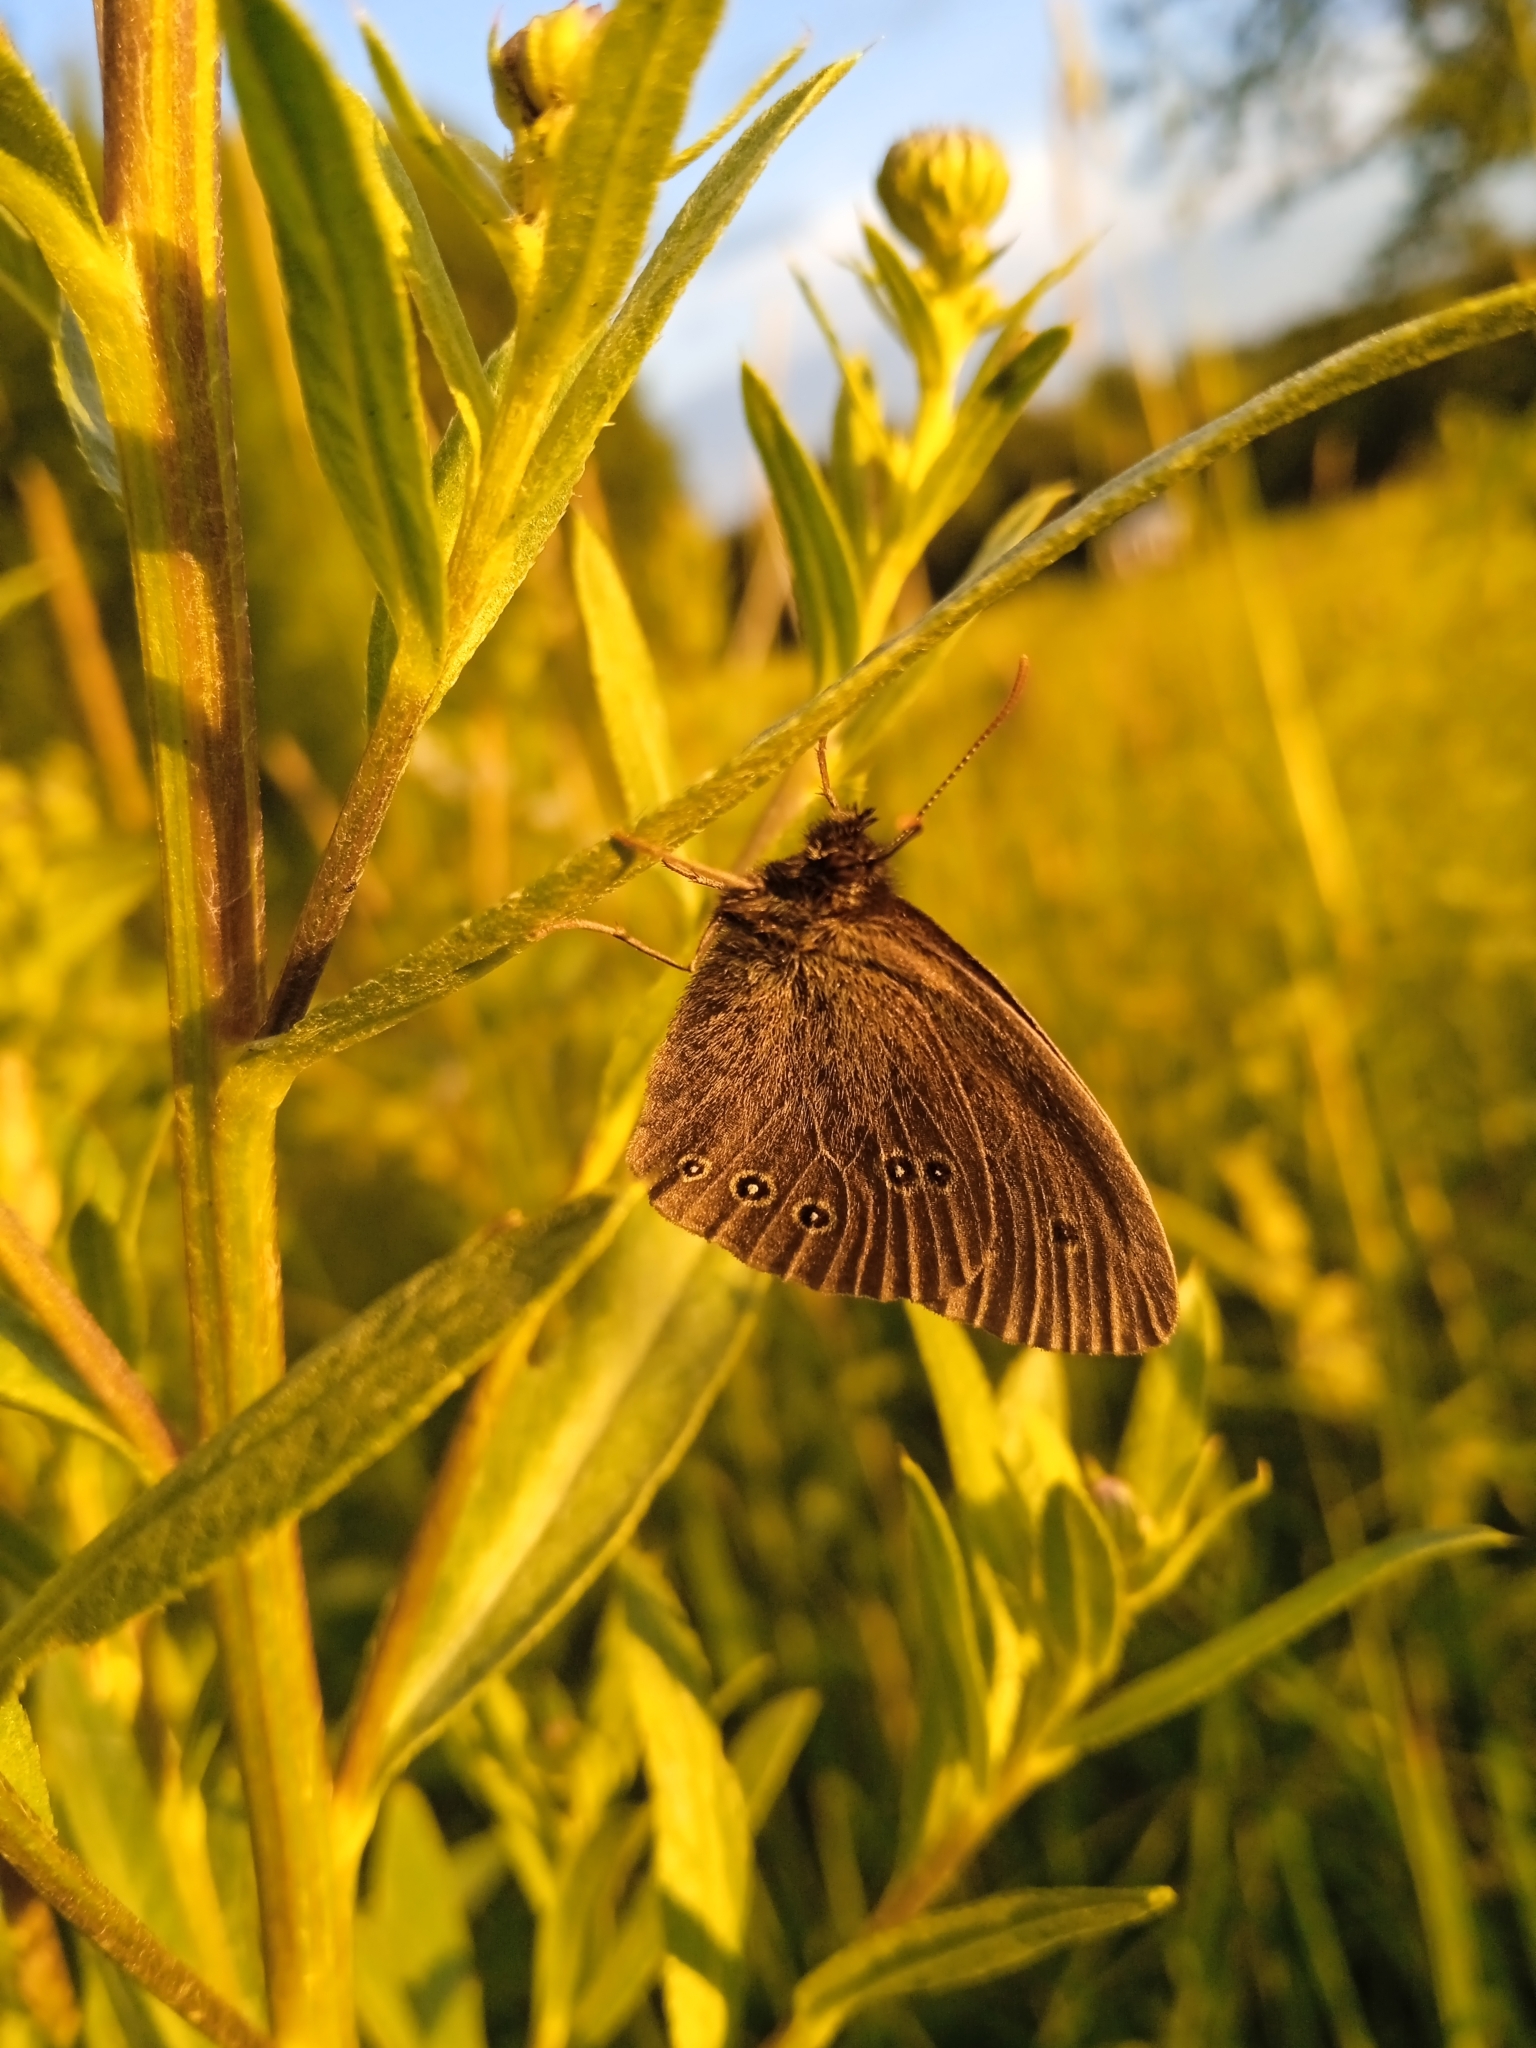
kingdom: Animalia
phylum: Arthropoda
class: Insecta
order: Lepidoptera
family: Nymphalidae
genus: Aphantopus
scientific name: Aphantopus hyperantus
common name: Ringlet
